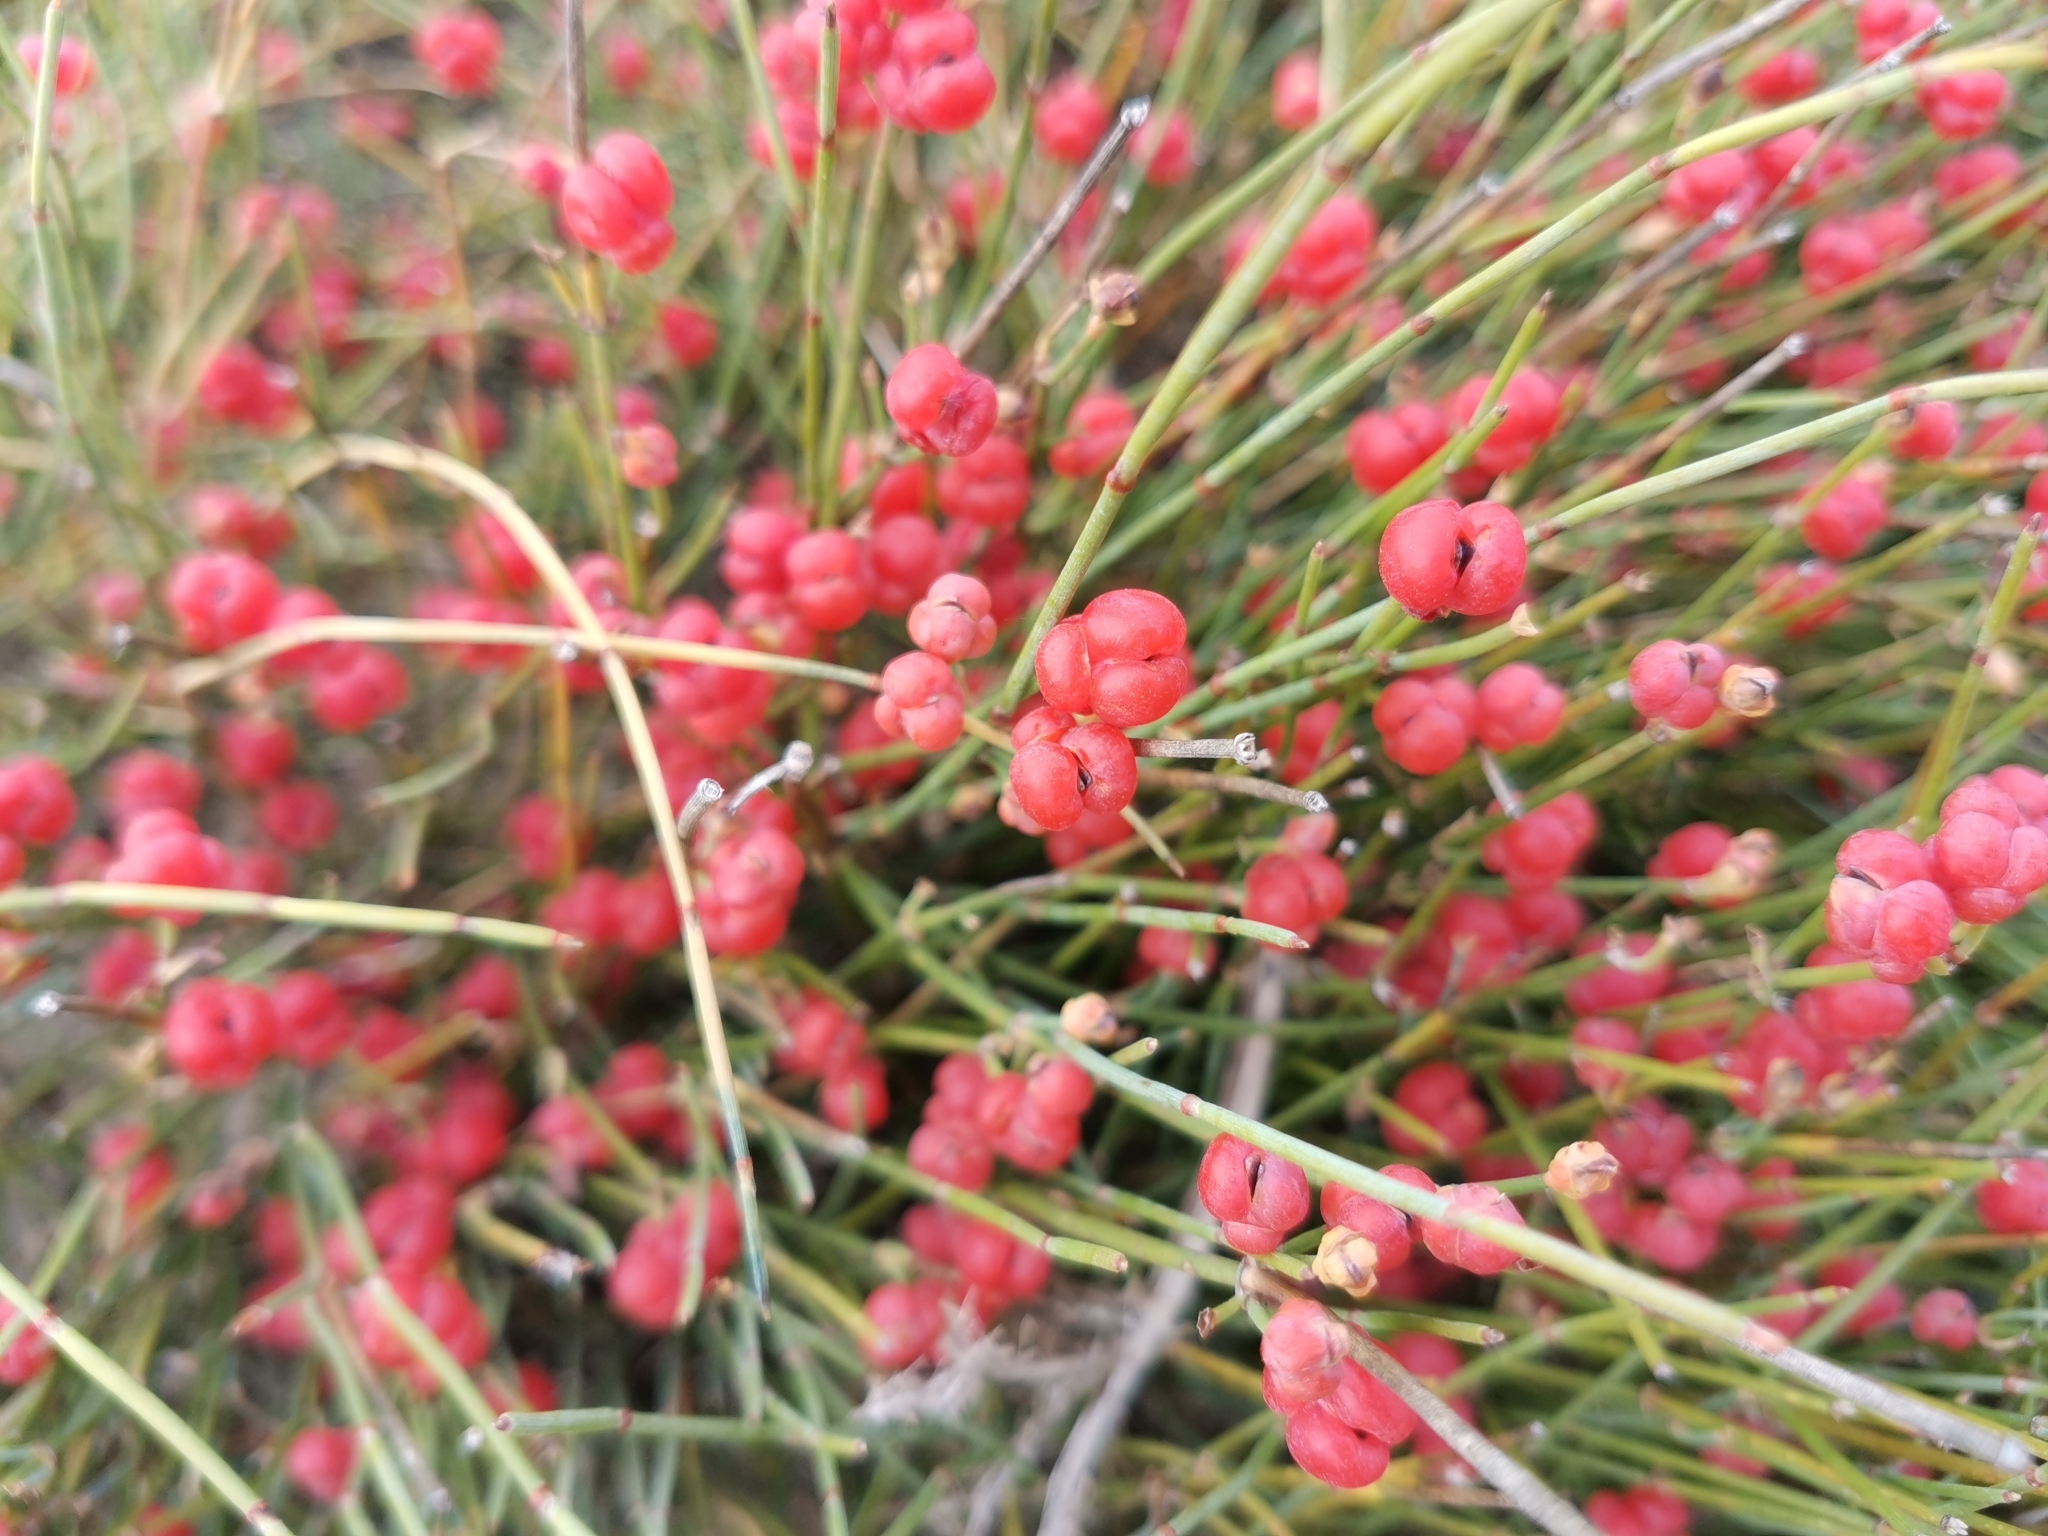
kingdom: Plantae
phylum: Tracheophyta
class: Gnetopsida
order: Ephedrales
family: Ephedraceae
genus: Ephedra
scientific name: Ephedra distachya
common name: Sea grape
